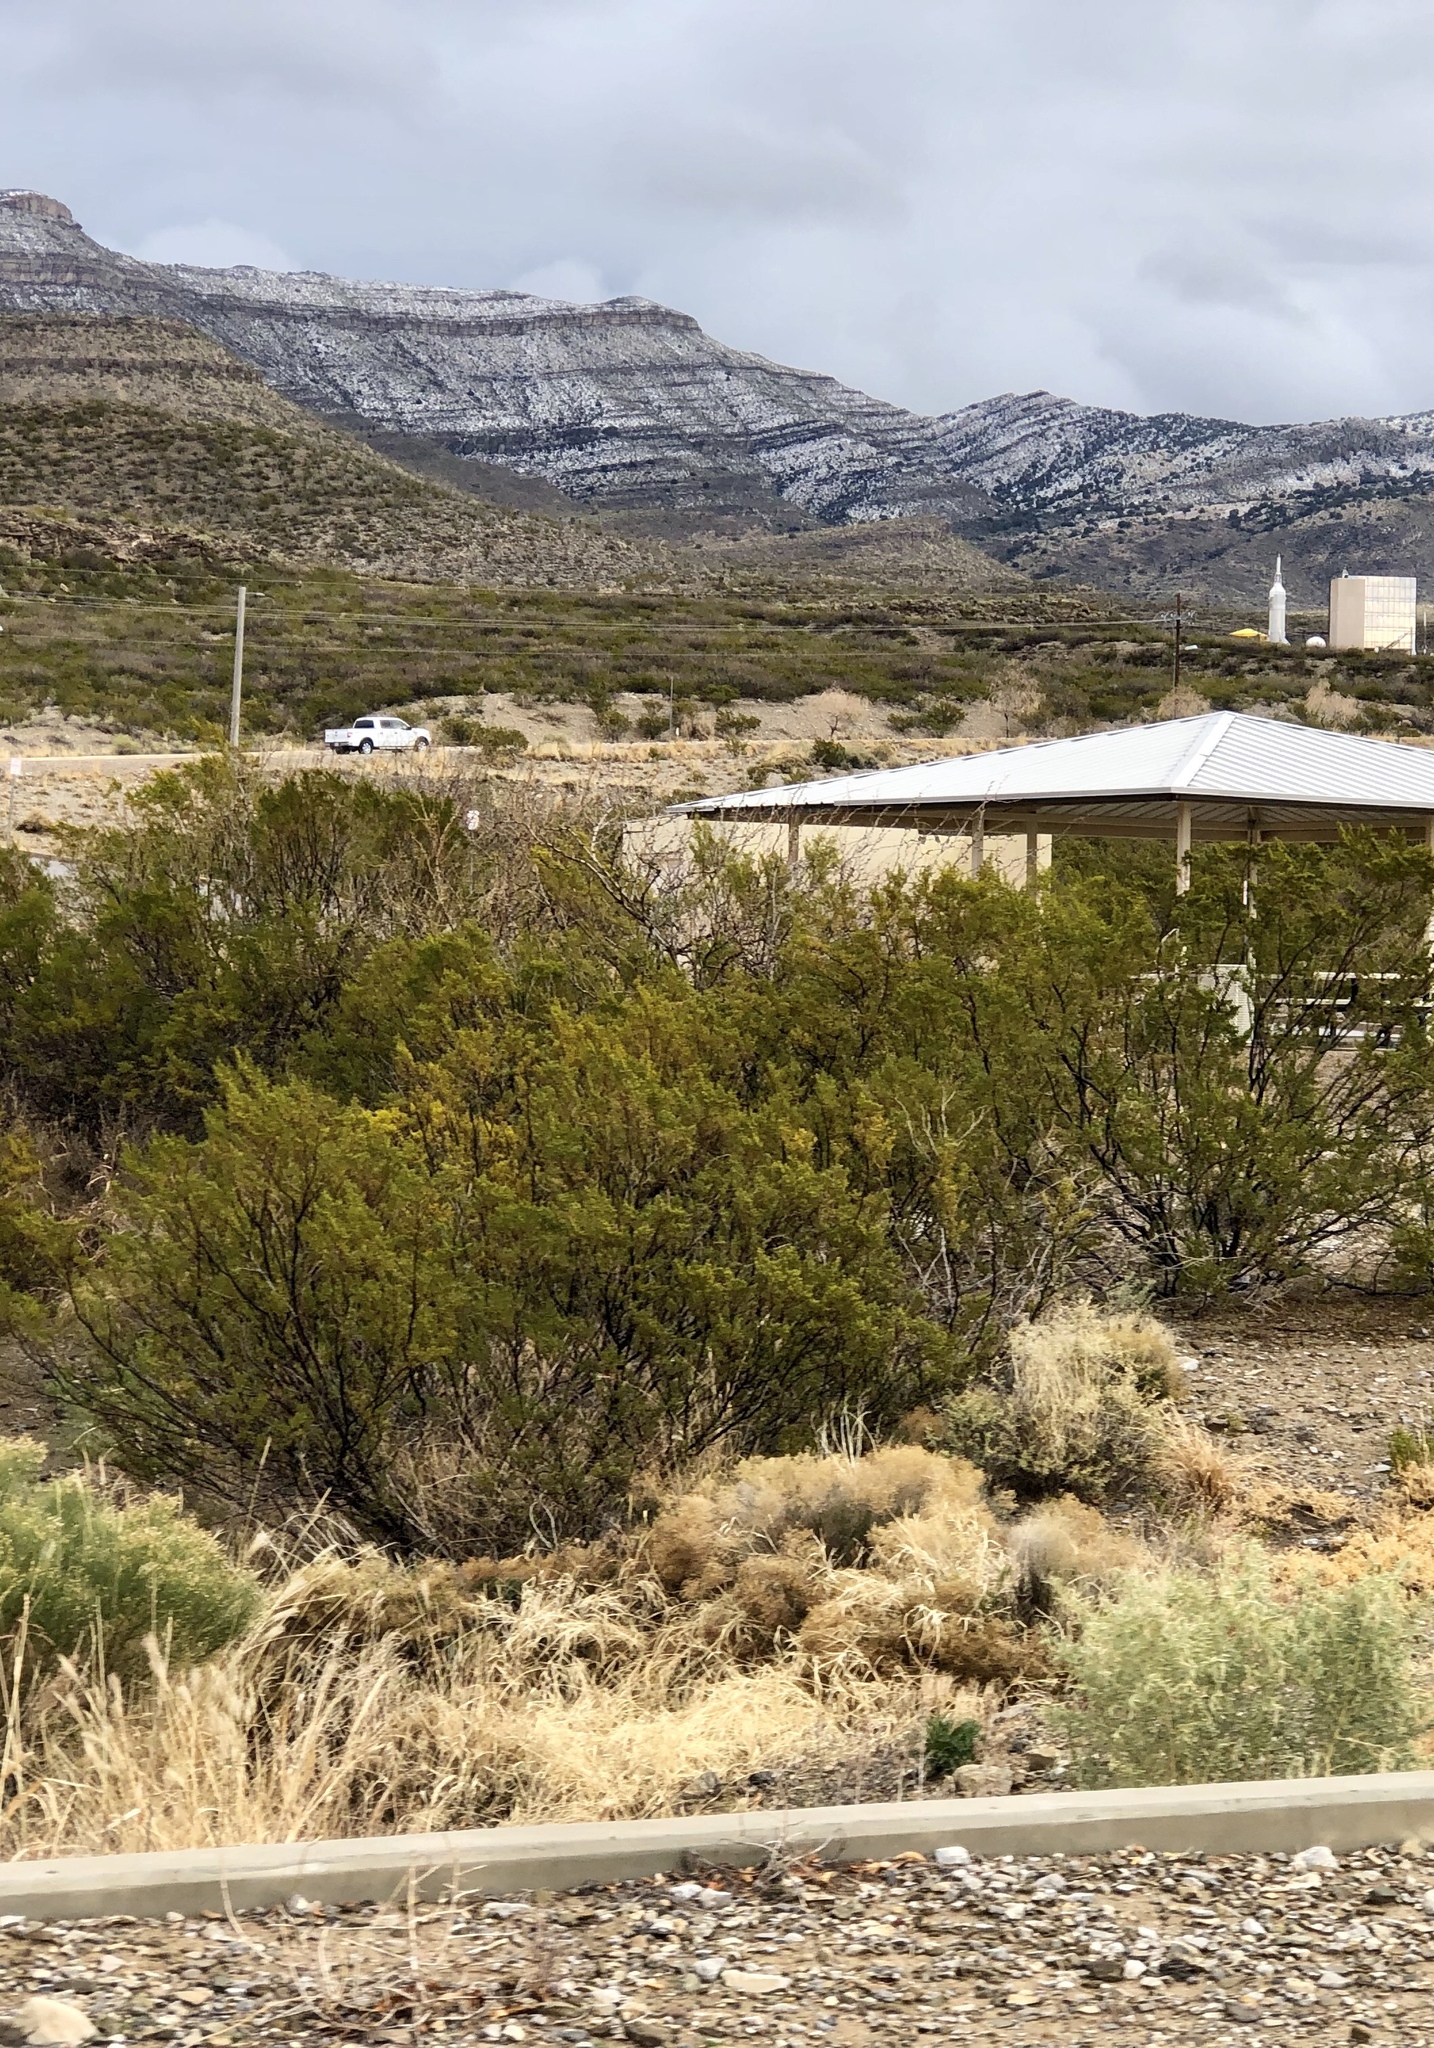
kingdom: Plantae
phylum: Tracheophyta
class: Magnoliopsida
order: Zygophyllales
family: Zygophyllaceae
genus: Larrea
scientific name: Larrea tridentata
